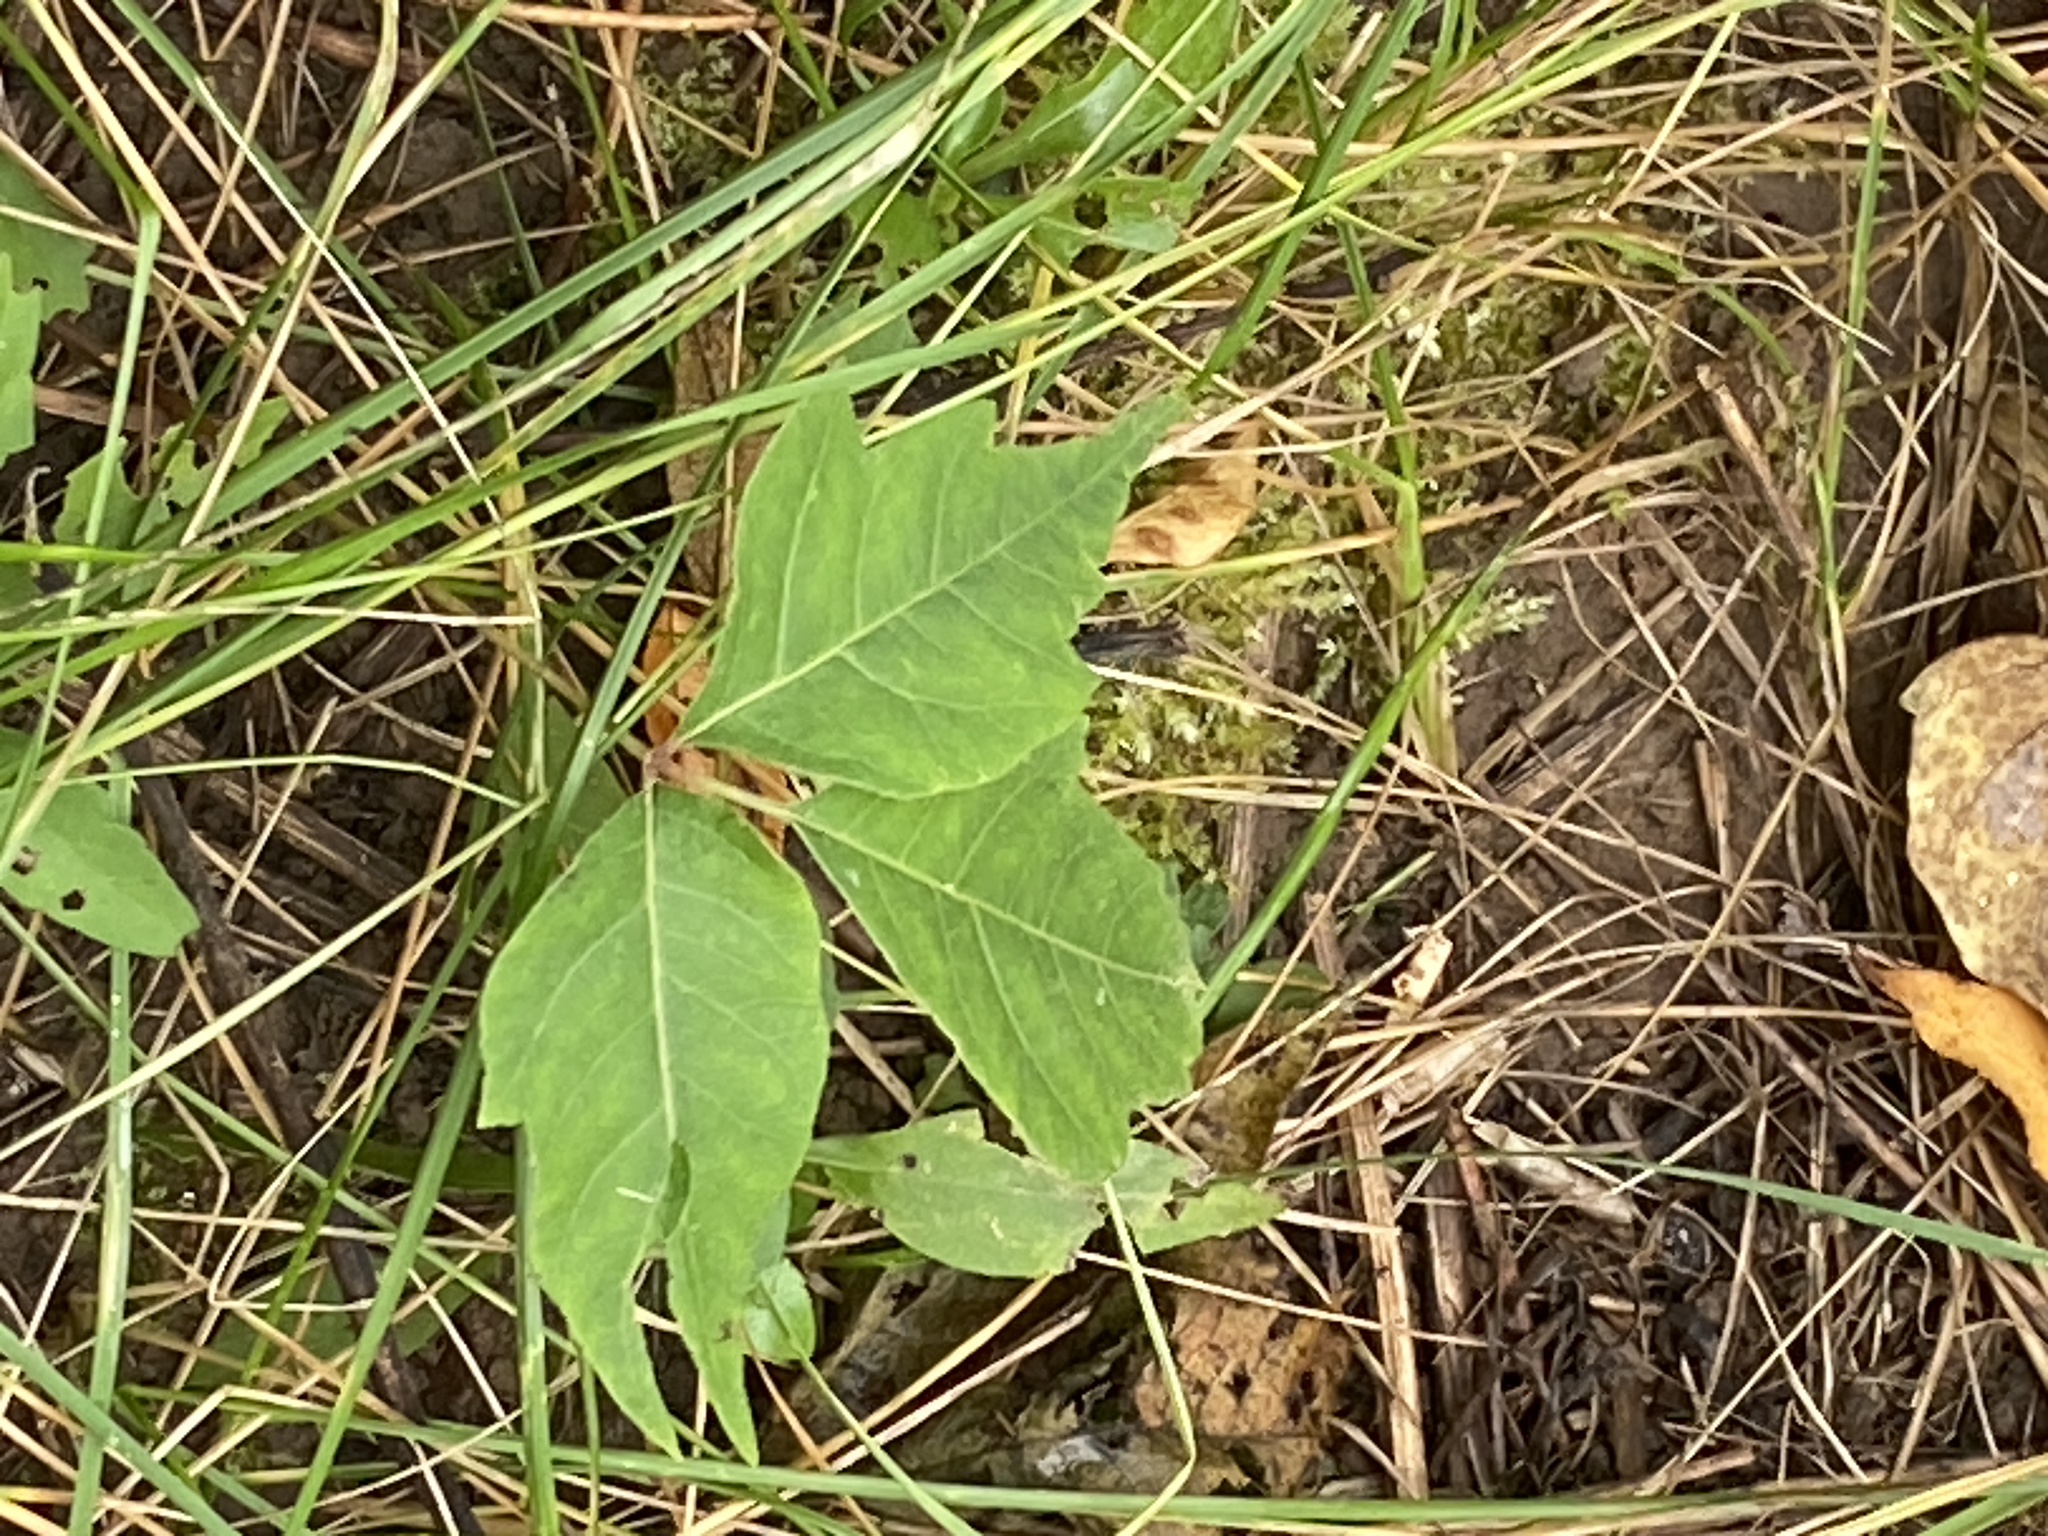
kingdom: Plantae
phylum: Tracheophyta
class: Magnoliopsida
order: Sapindales
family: Anacardiaceae
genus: Toxicodendron
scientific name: Toxicodendron radicans
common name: Poison ivy
